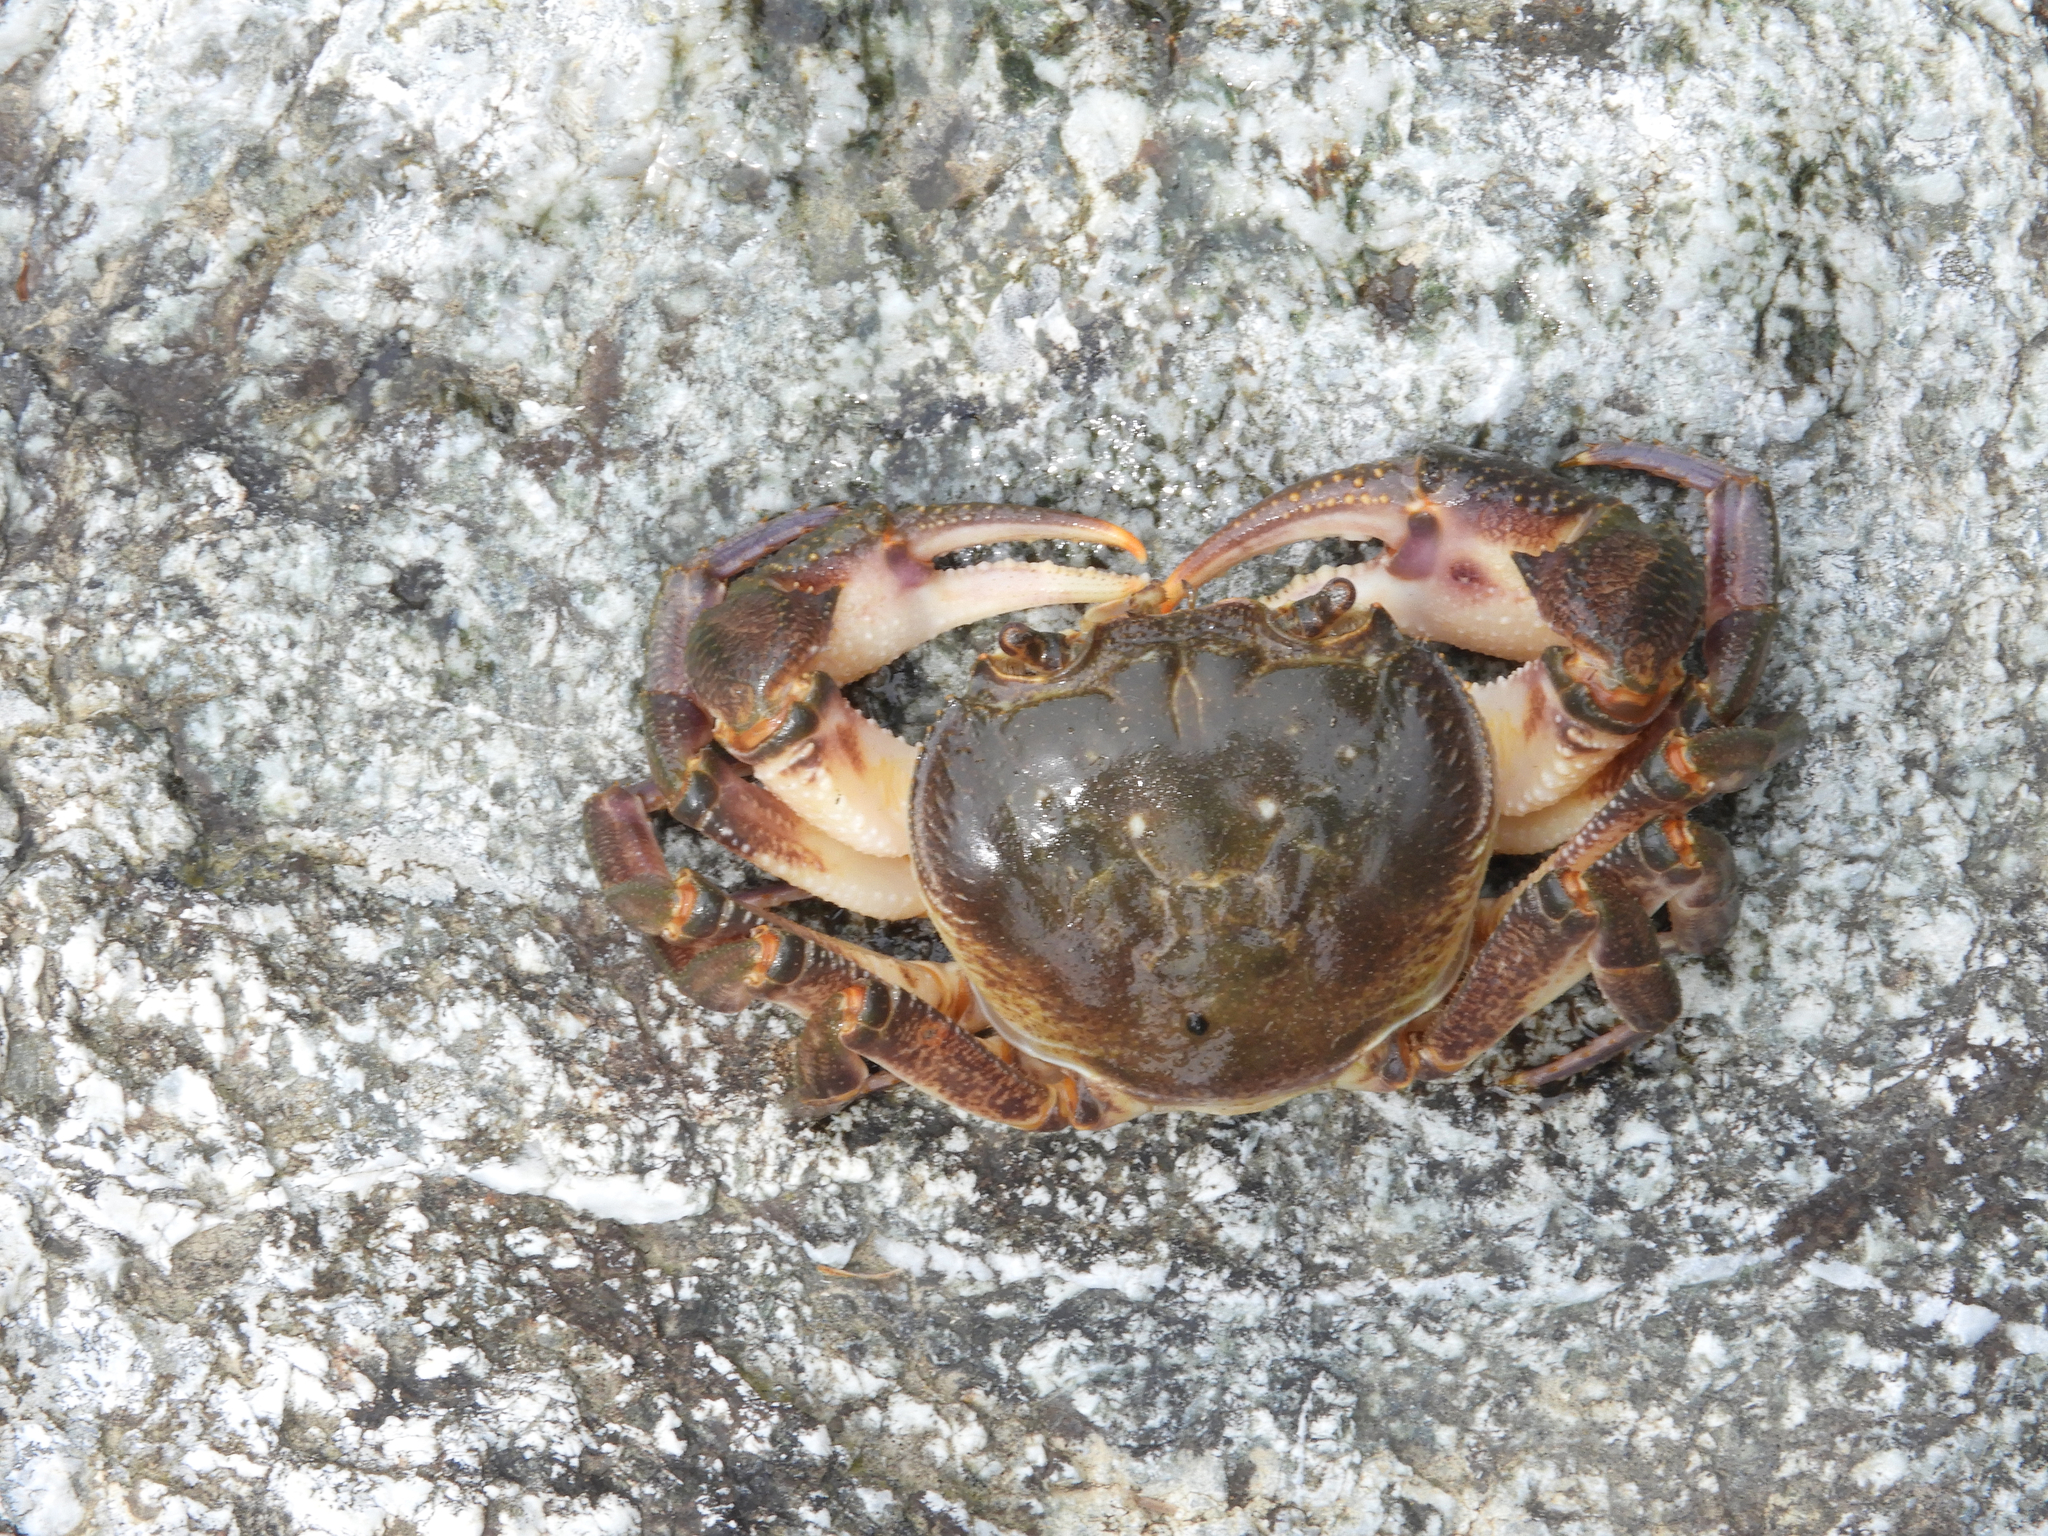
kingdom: Animalia
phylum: Arthropoda
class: Malacostraca
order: Decapoda
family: Potamidae
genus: Potamon
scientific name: Potamon fluviatile
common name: Italian freshwater crab
